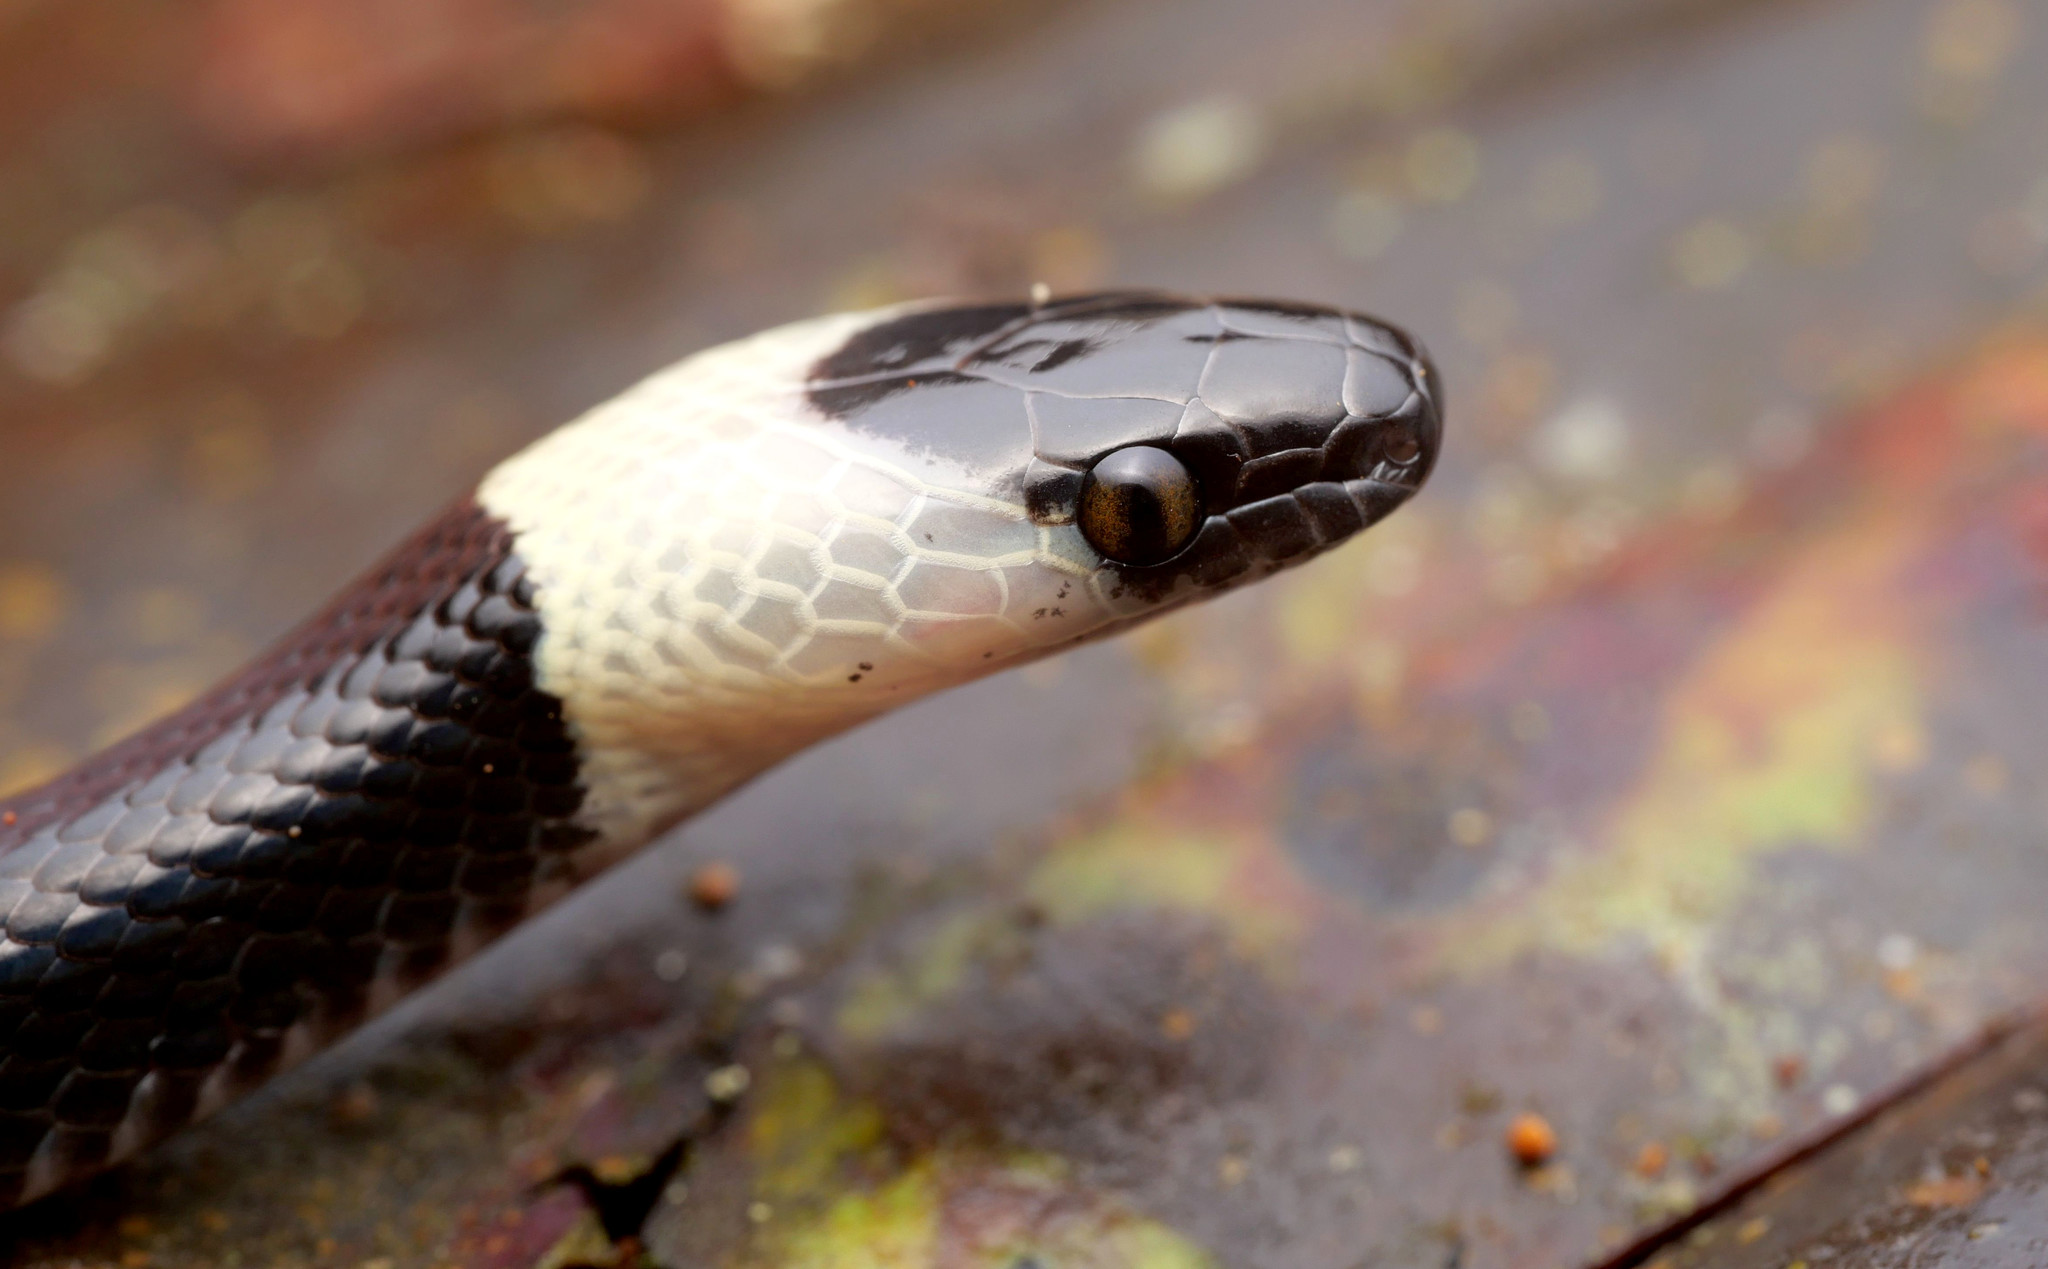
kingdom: Animalia
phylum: Chordata
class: Squamata
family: Colubridae
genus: Oxyrhopus
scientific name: Oxyrhopus petolarius
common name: Forest flame snake
